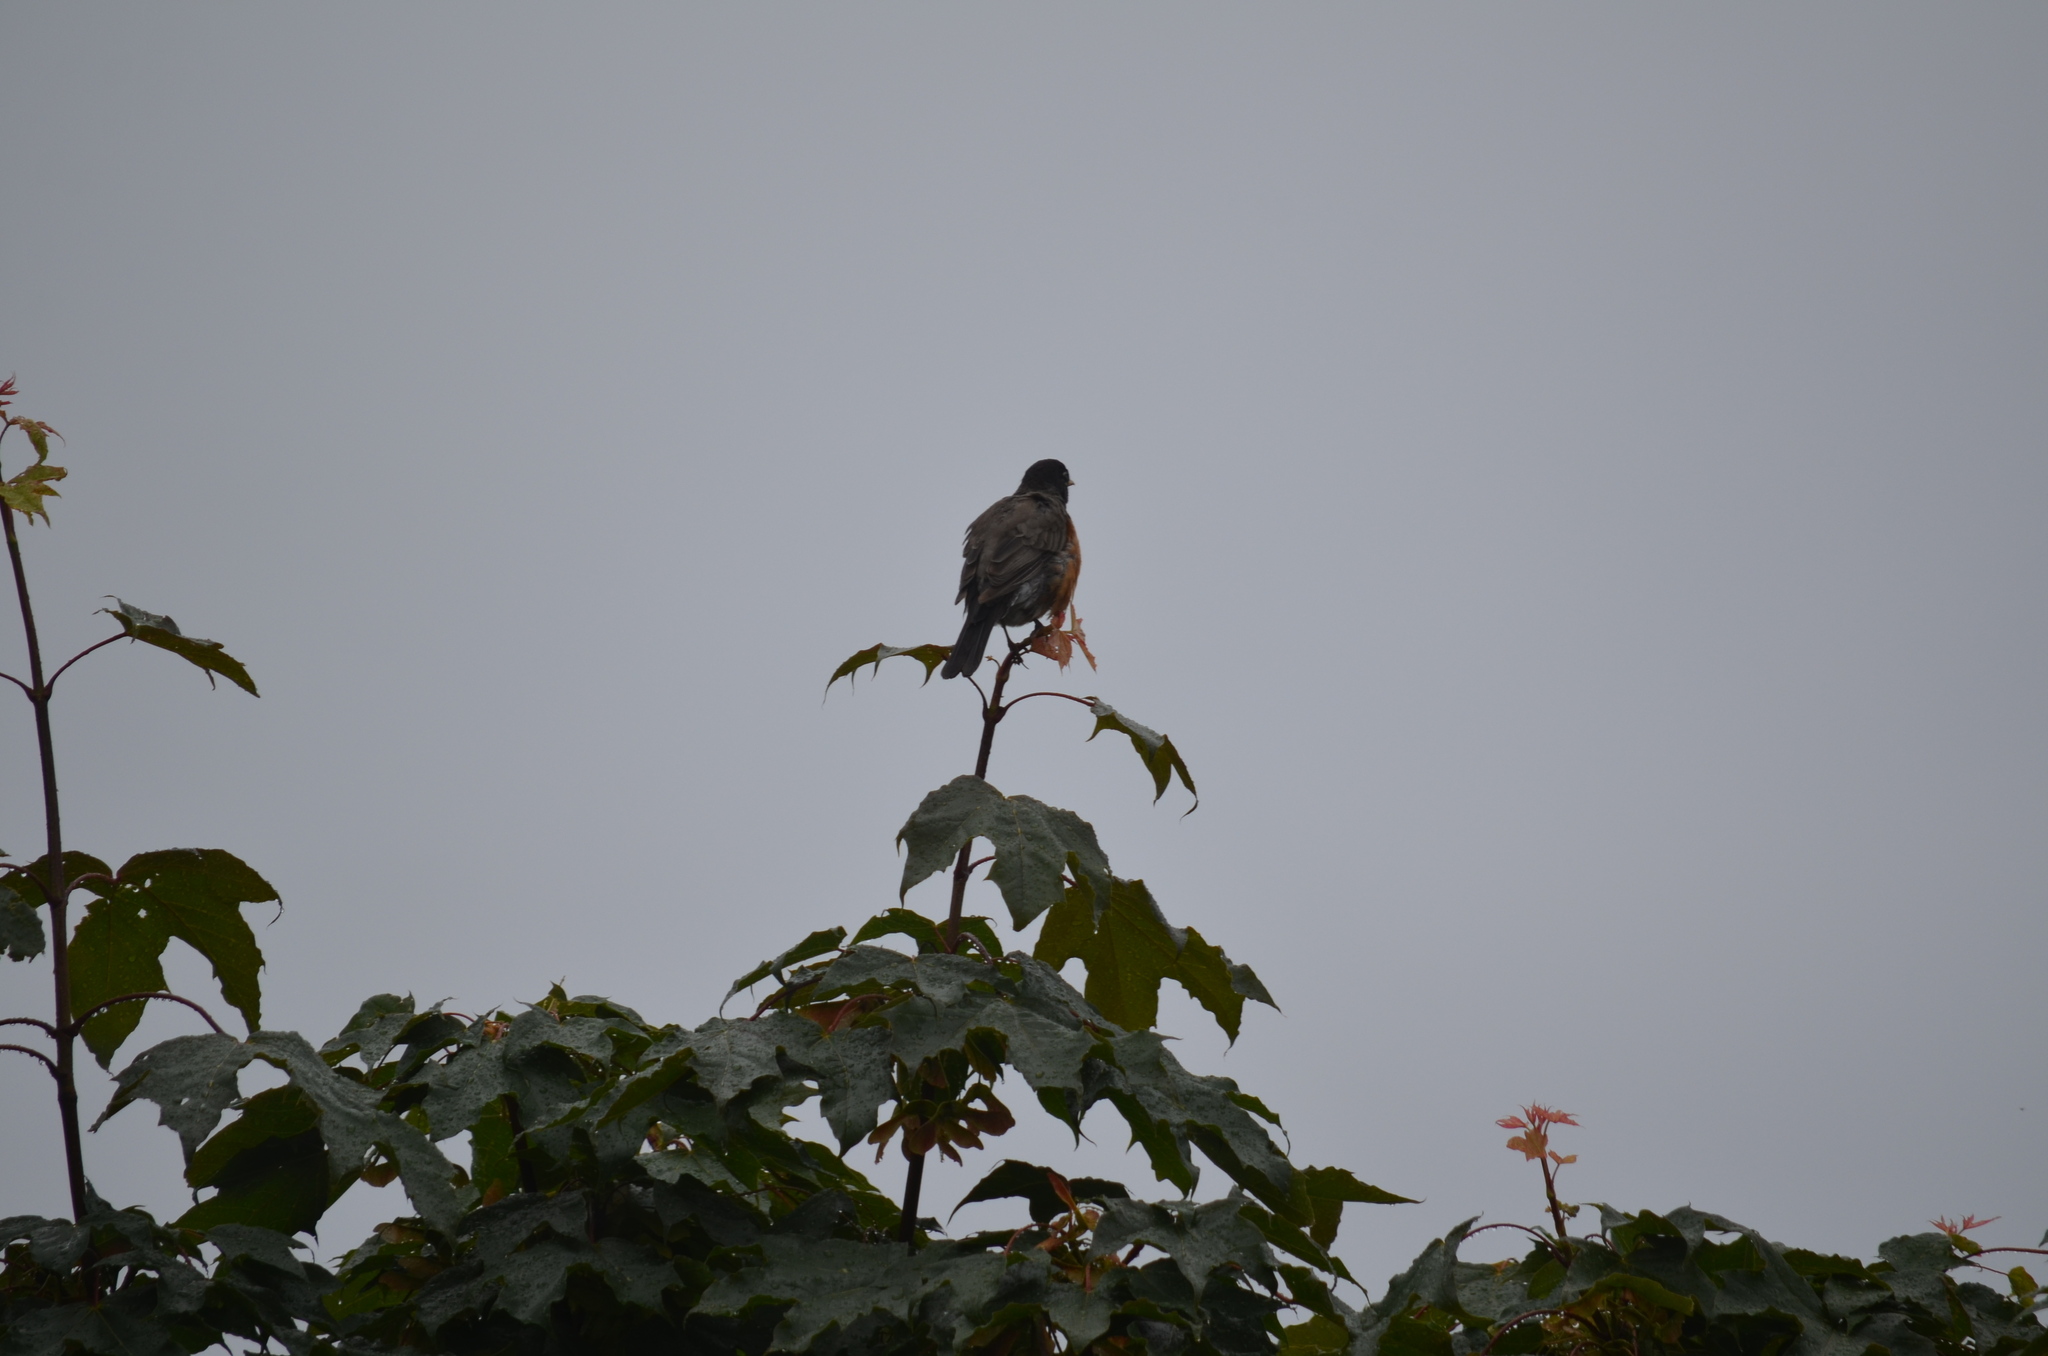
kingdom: Animalia
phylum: Chordata
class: Aves
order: Passeriformes
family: Turdidae
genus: Turdus
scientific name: Turdus migratorius
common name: American robin
